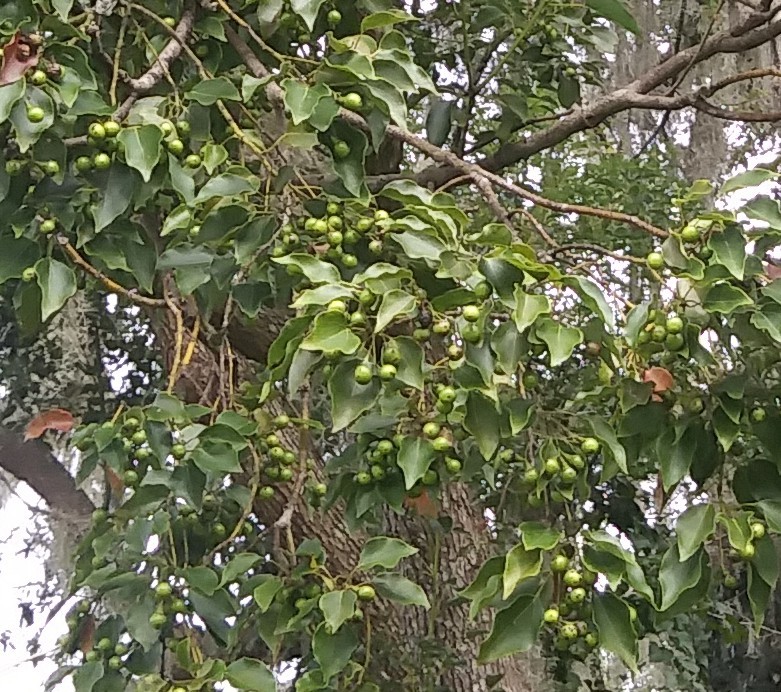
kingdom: Plantae
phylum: Tracheophyta
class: Magnoliopsida
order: Laurales
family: Lauraceae
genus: Cinnamomum
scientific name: Cinnamomum camphora
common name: Camphortree
